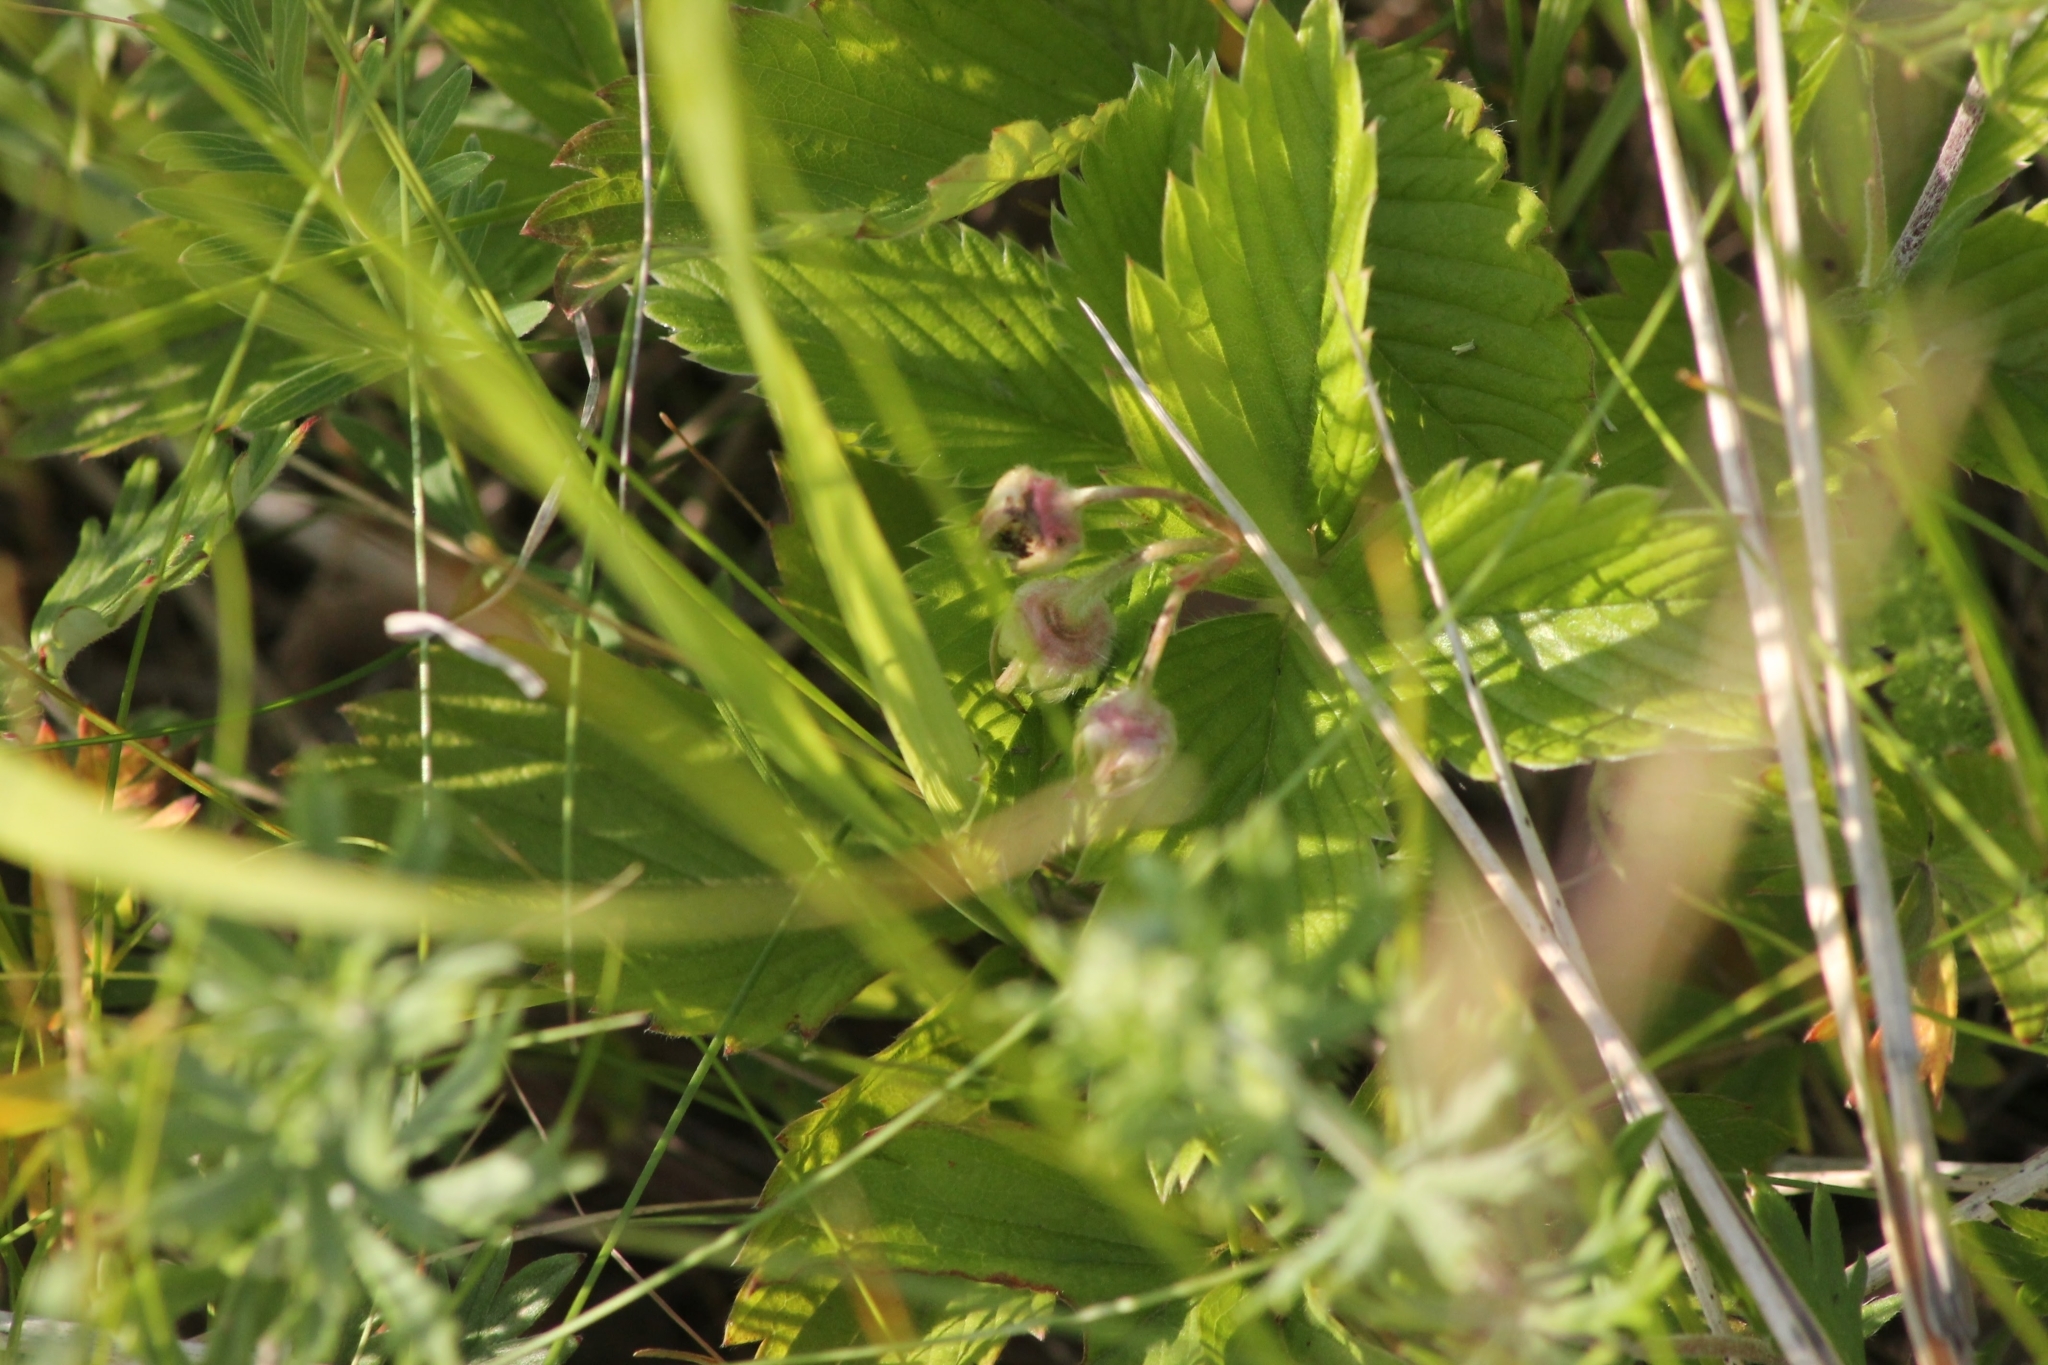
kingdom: Plantae
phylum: Tracheophyta
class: Magnoliopsida
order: Rosales
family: Rosaceae
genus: Fragaria
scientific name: Fragaria viridis
